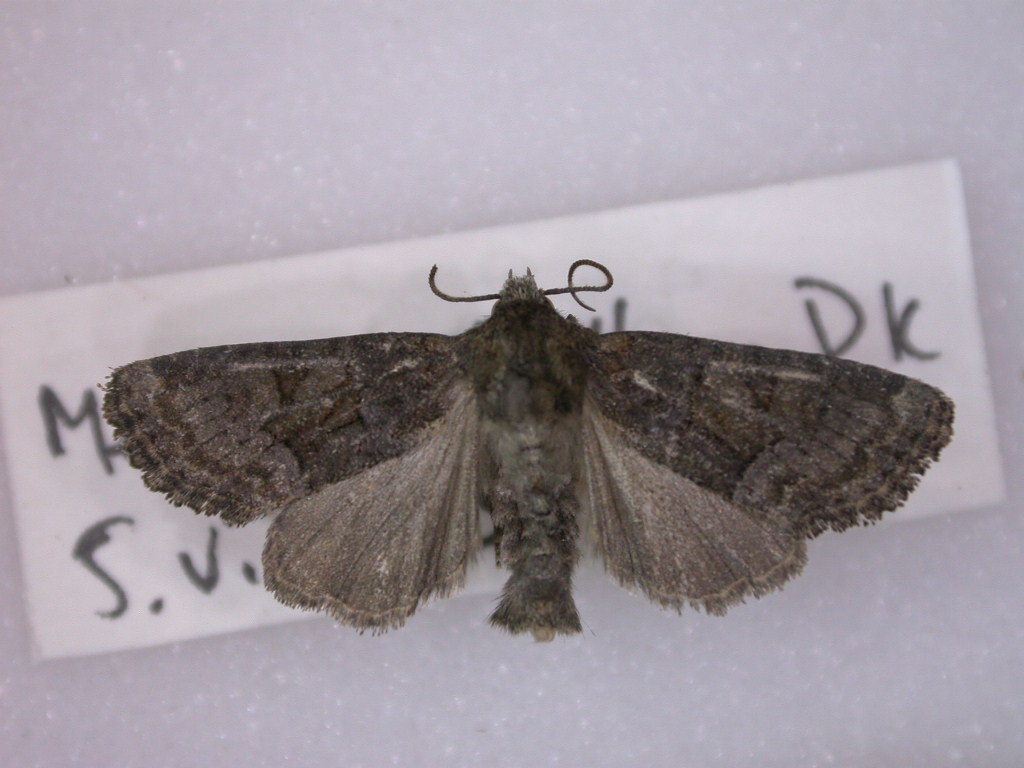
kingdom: Animalia
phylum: Arthropoda
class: Insecta
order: Lepidoptera
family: Noctuidae
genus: Oligia
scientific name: Oligia latruncula
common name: Tawny marbled minor
